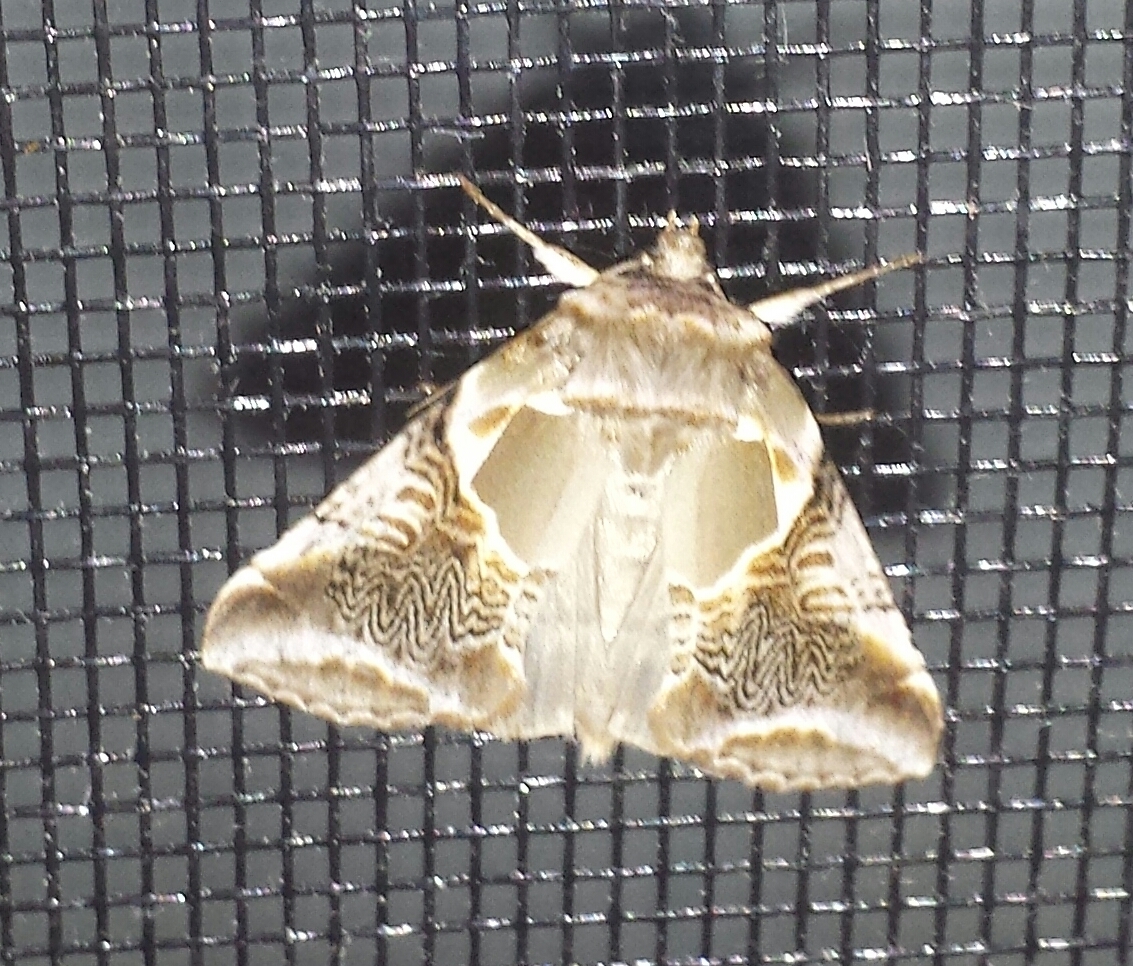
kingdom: Animalia
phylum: Arthropoda
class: Insecta
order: Lepidoptera
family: Drepanidae
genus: Habrosyne
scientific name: Habrosyne scripta
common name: Lettered habrosyne moth
